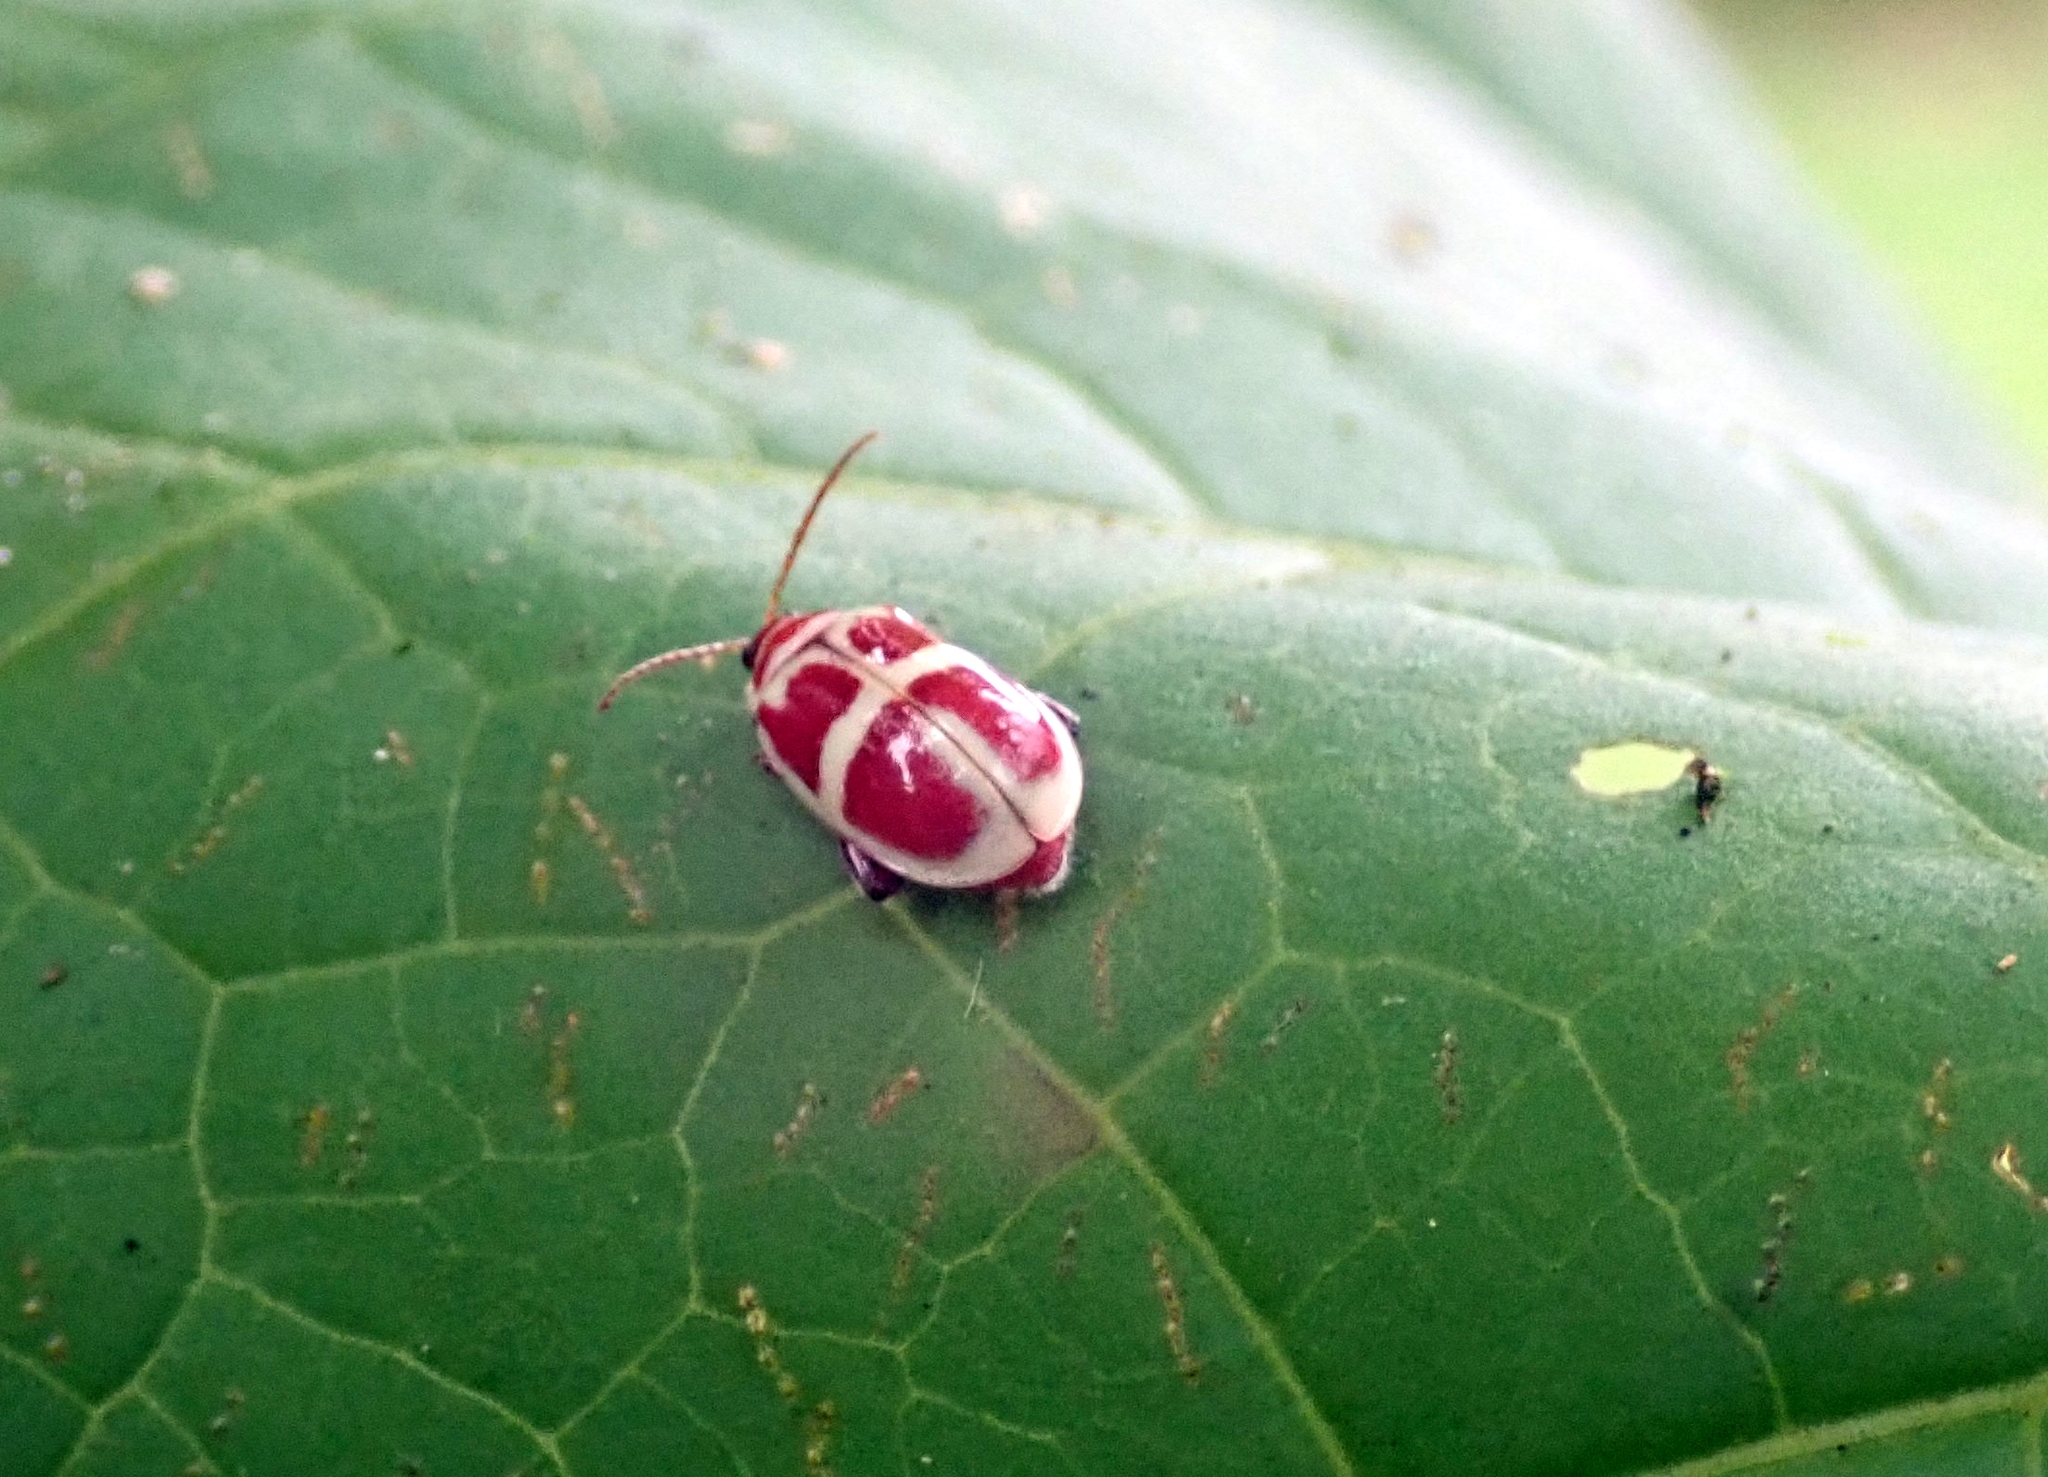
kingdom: Animalia
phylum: Arthropoda
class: Insecta
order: Coleoptera
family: Chrysomelidae
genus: Asphaera
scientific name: Asphaera discicollis
